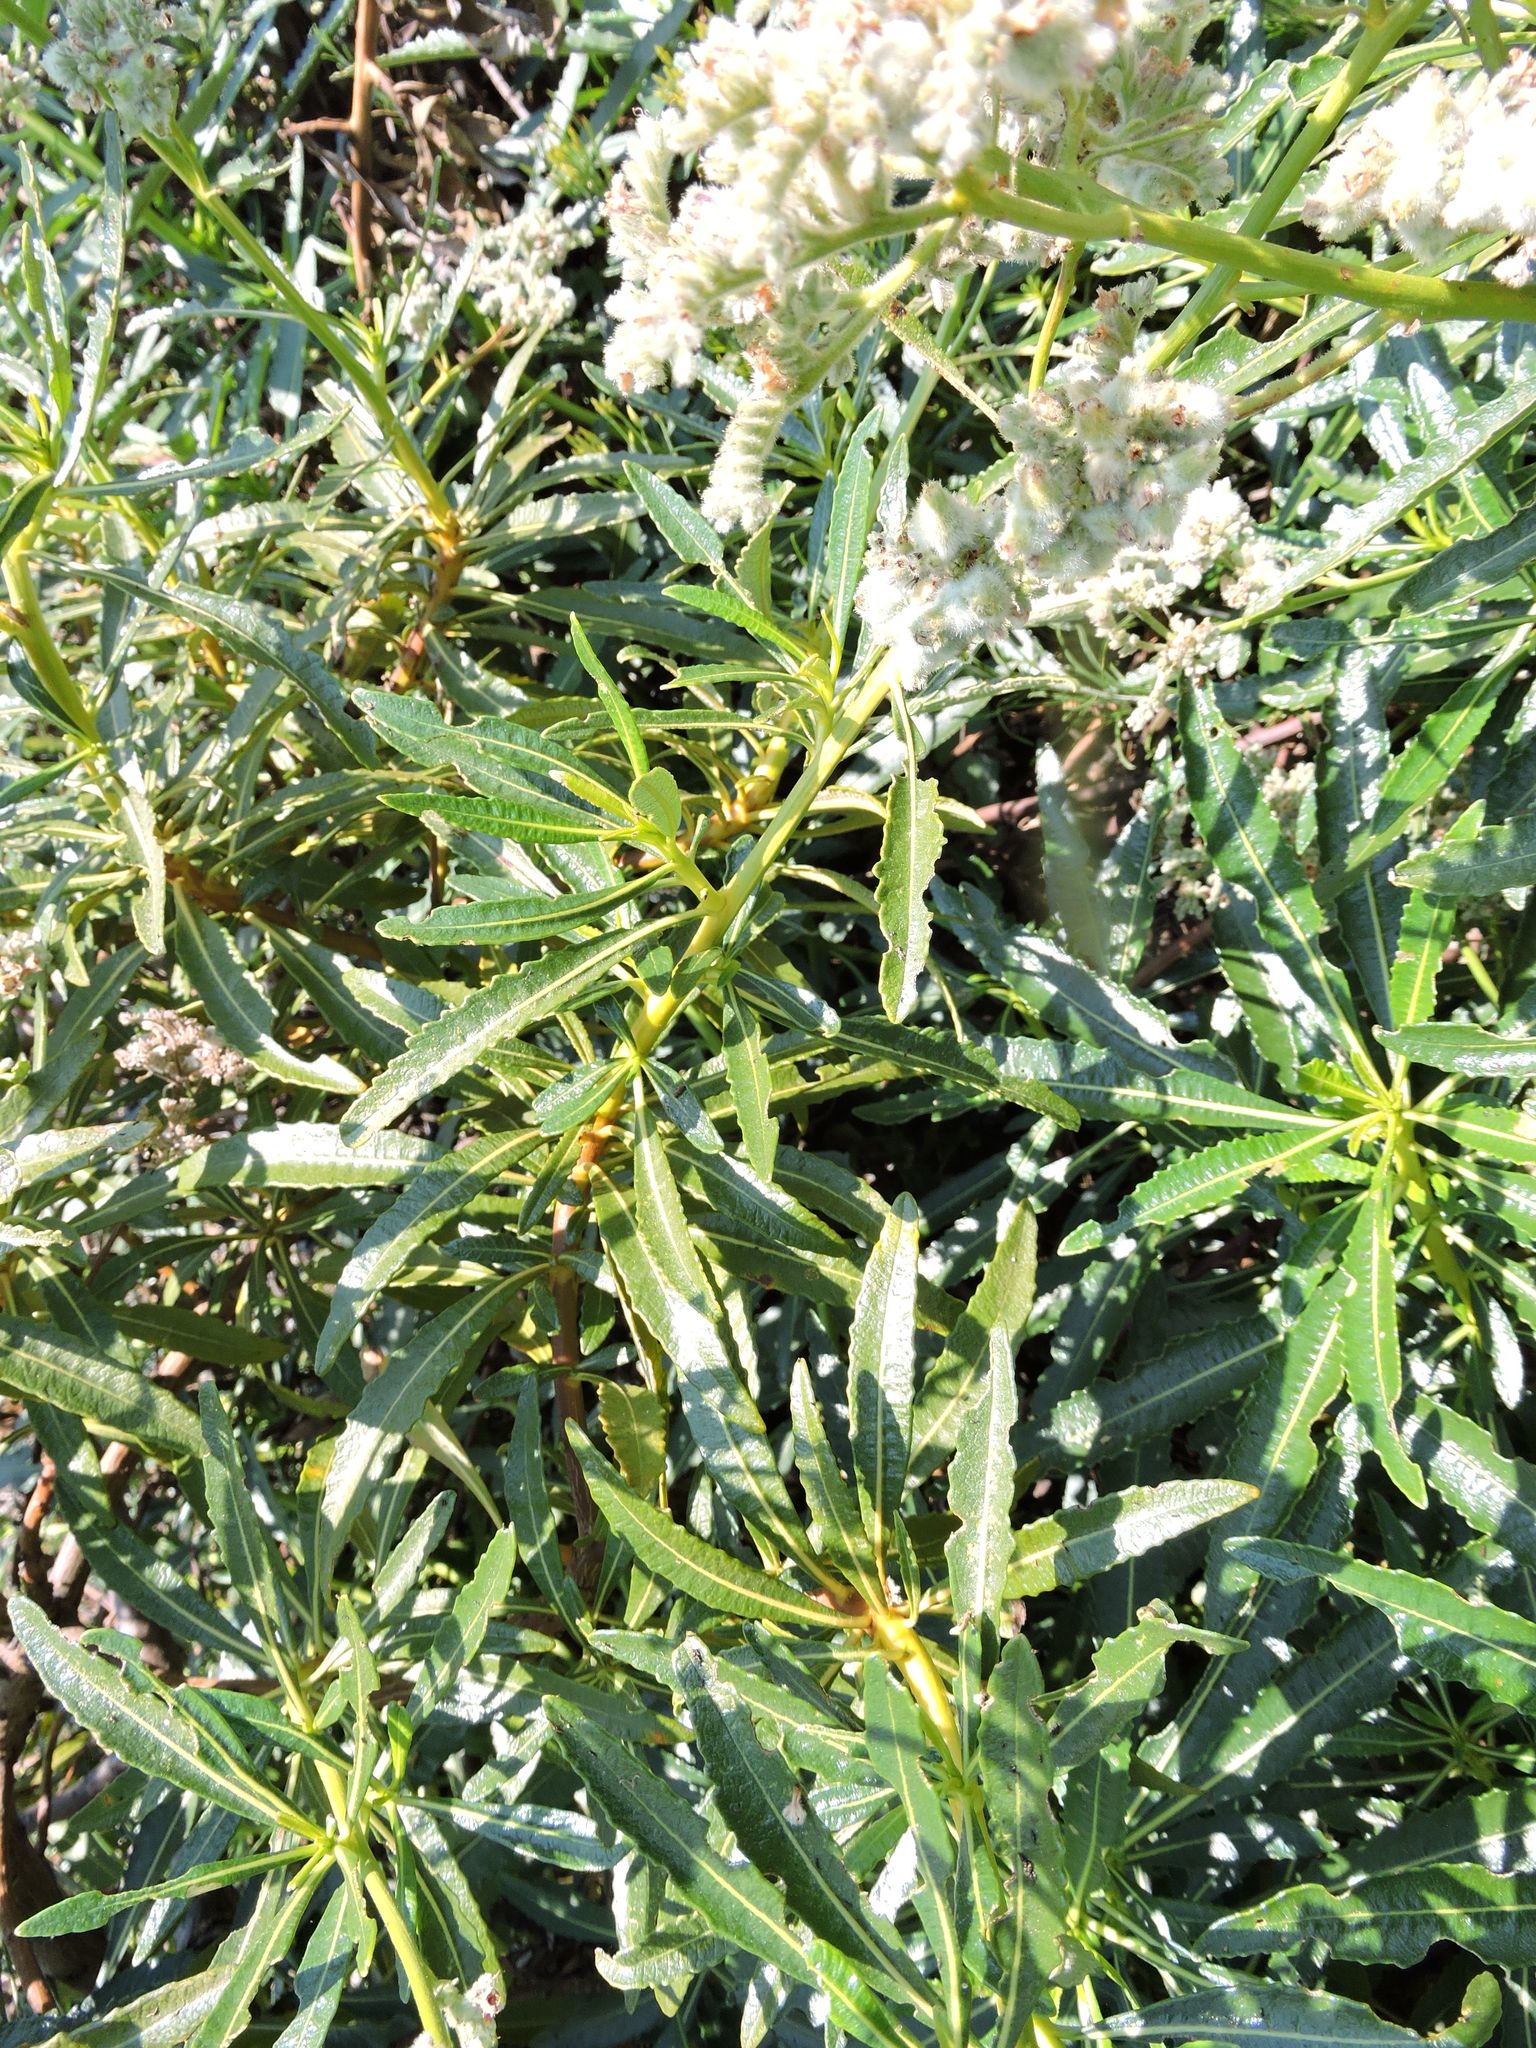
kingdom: Plantae
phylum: Tracheophyta
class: Magnoliopsida
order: Boraginales
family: Namaceae
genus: Eriodictyon
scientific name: Eriodictyon trichocalyx
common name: Hairy yerba-santa
